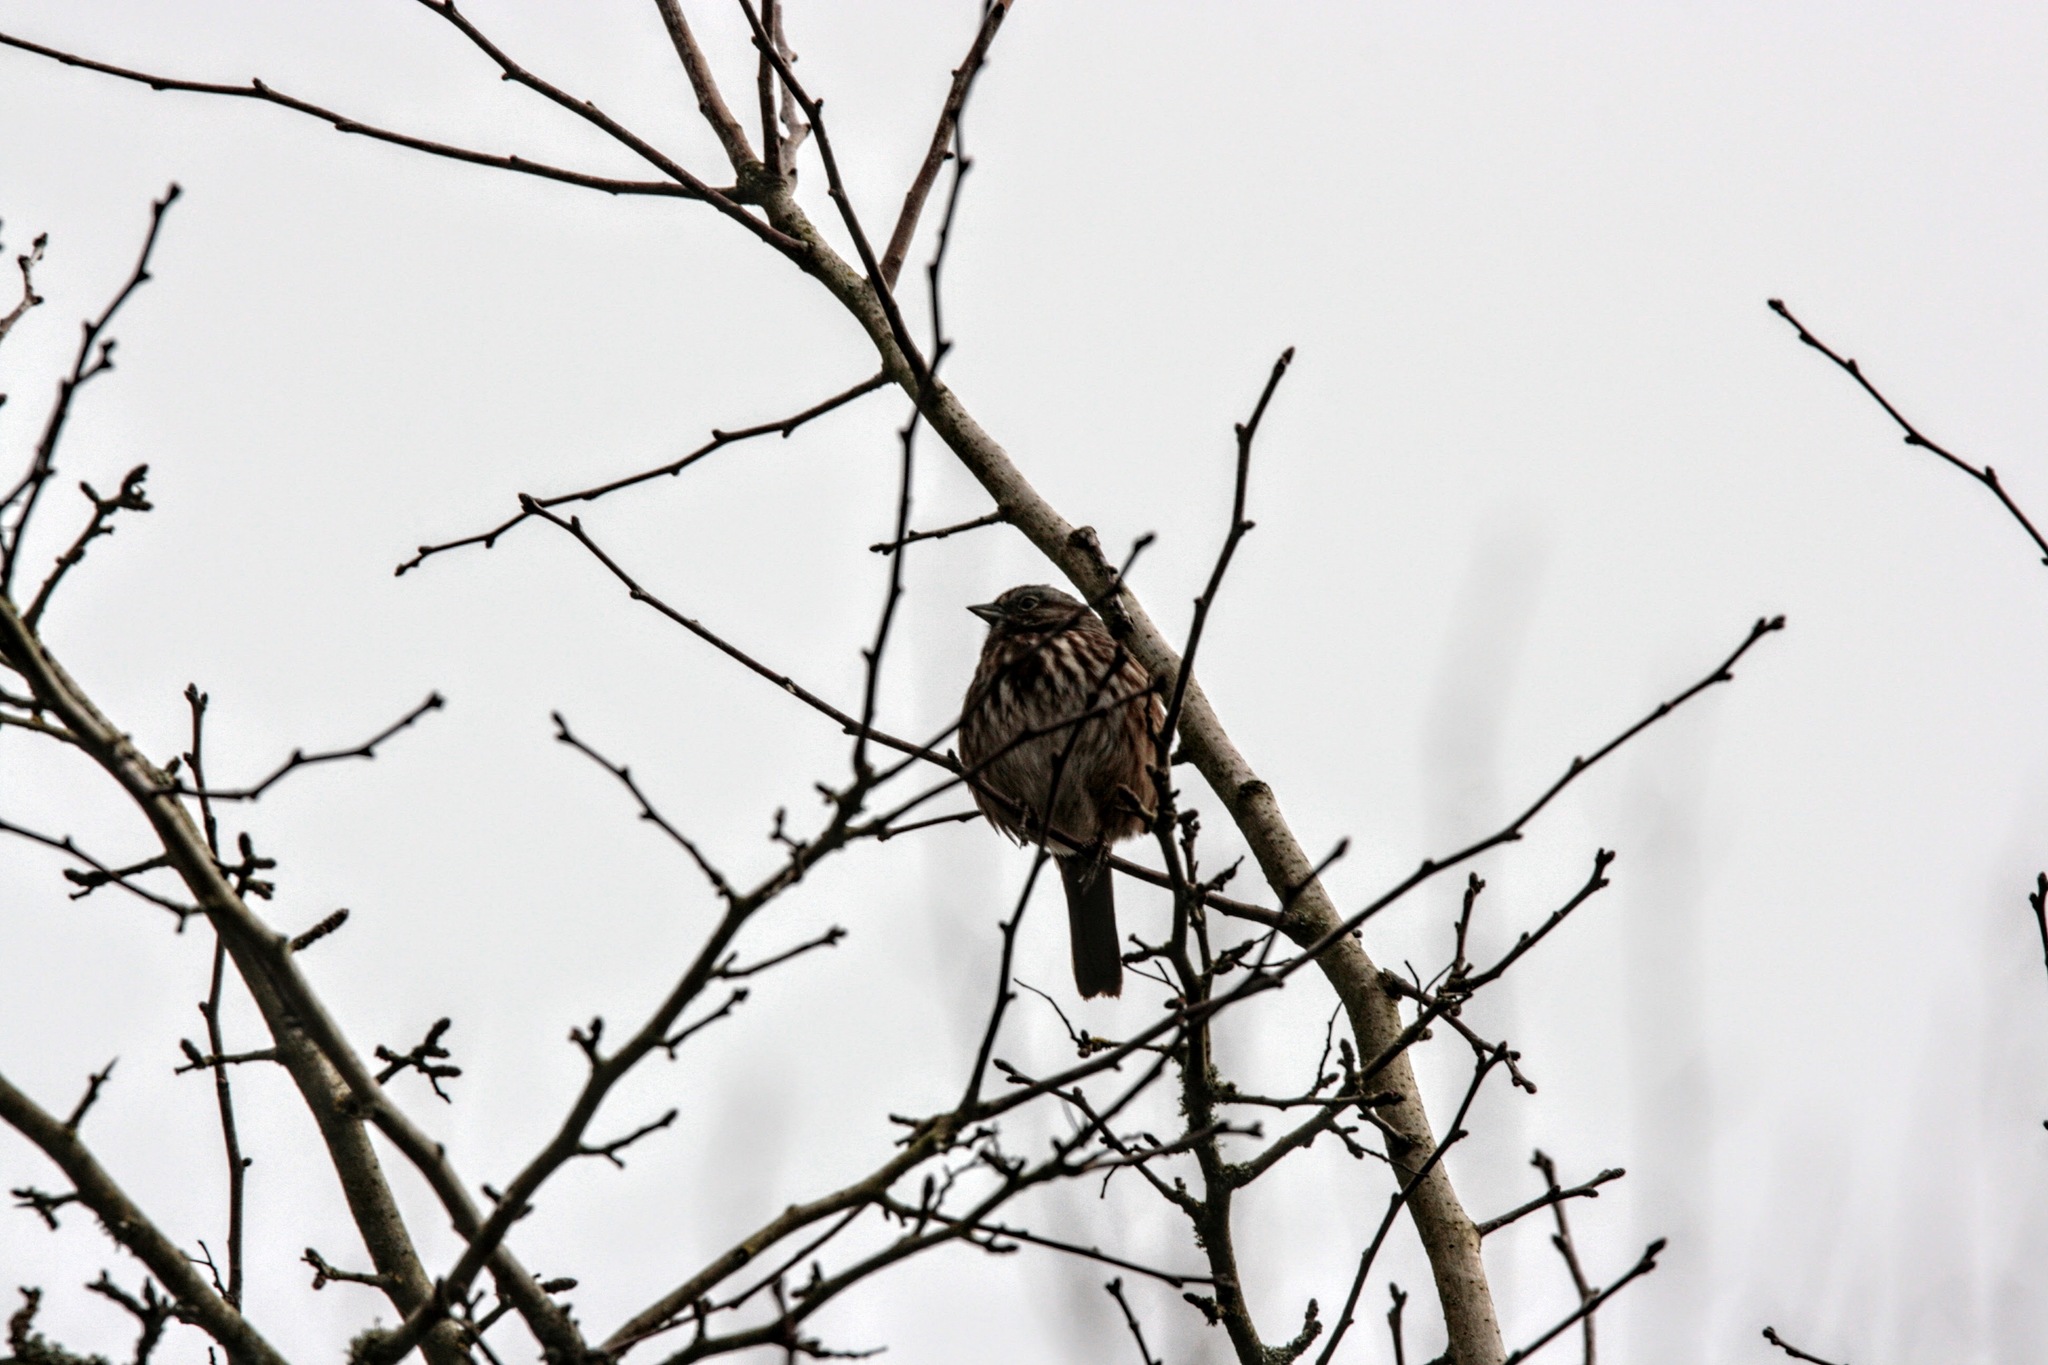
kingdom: Animalia
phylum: Chordata
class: Aves
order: Passeriformes
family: Passerellidae
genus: Melospiza
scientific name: Melospiza melodia
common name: Song sparrow
